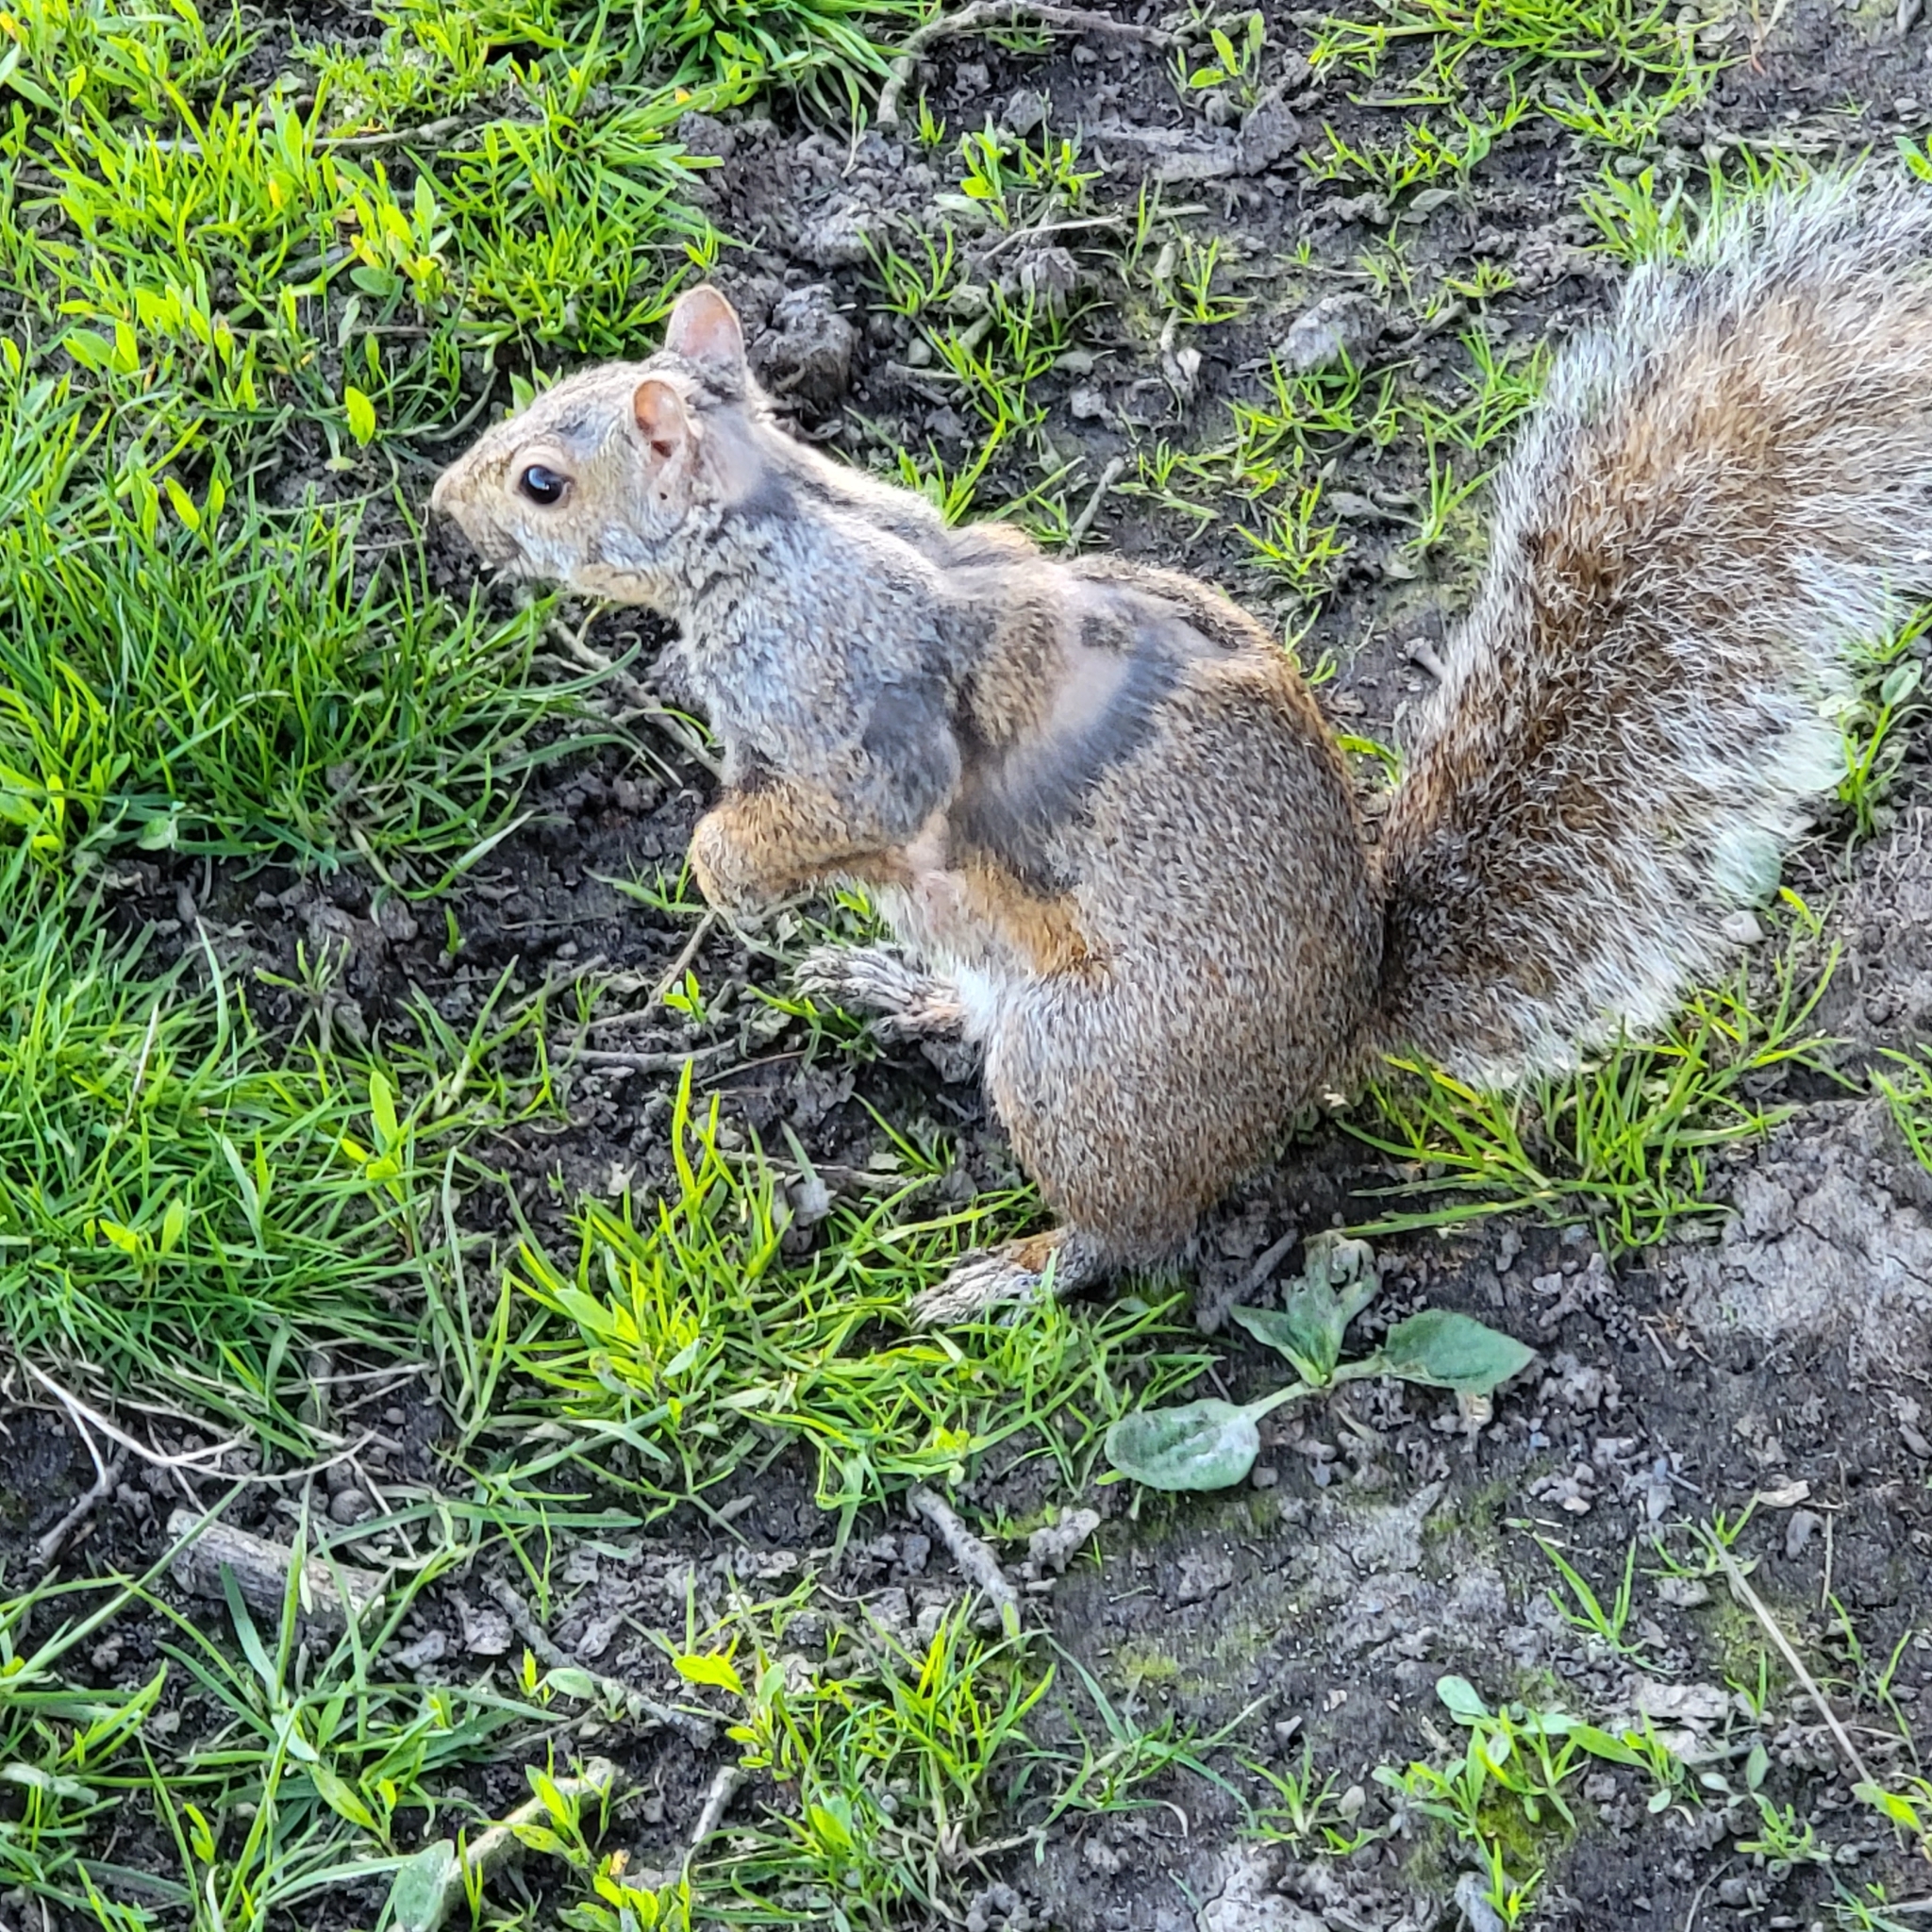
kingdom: Animalia
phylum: Chordata
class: Mammalia
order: Rodentia
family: Sciuridae
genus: Sciurus
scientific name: Sciurus carolinensis
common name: Eastern gray squirrel
